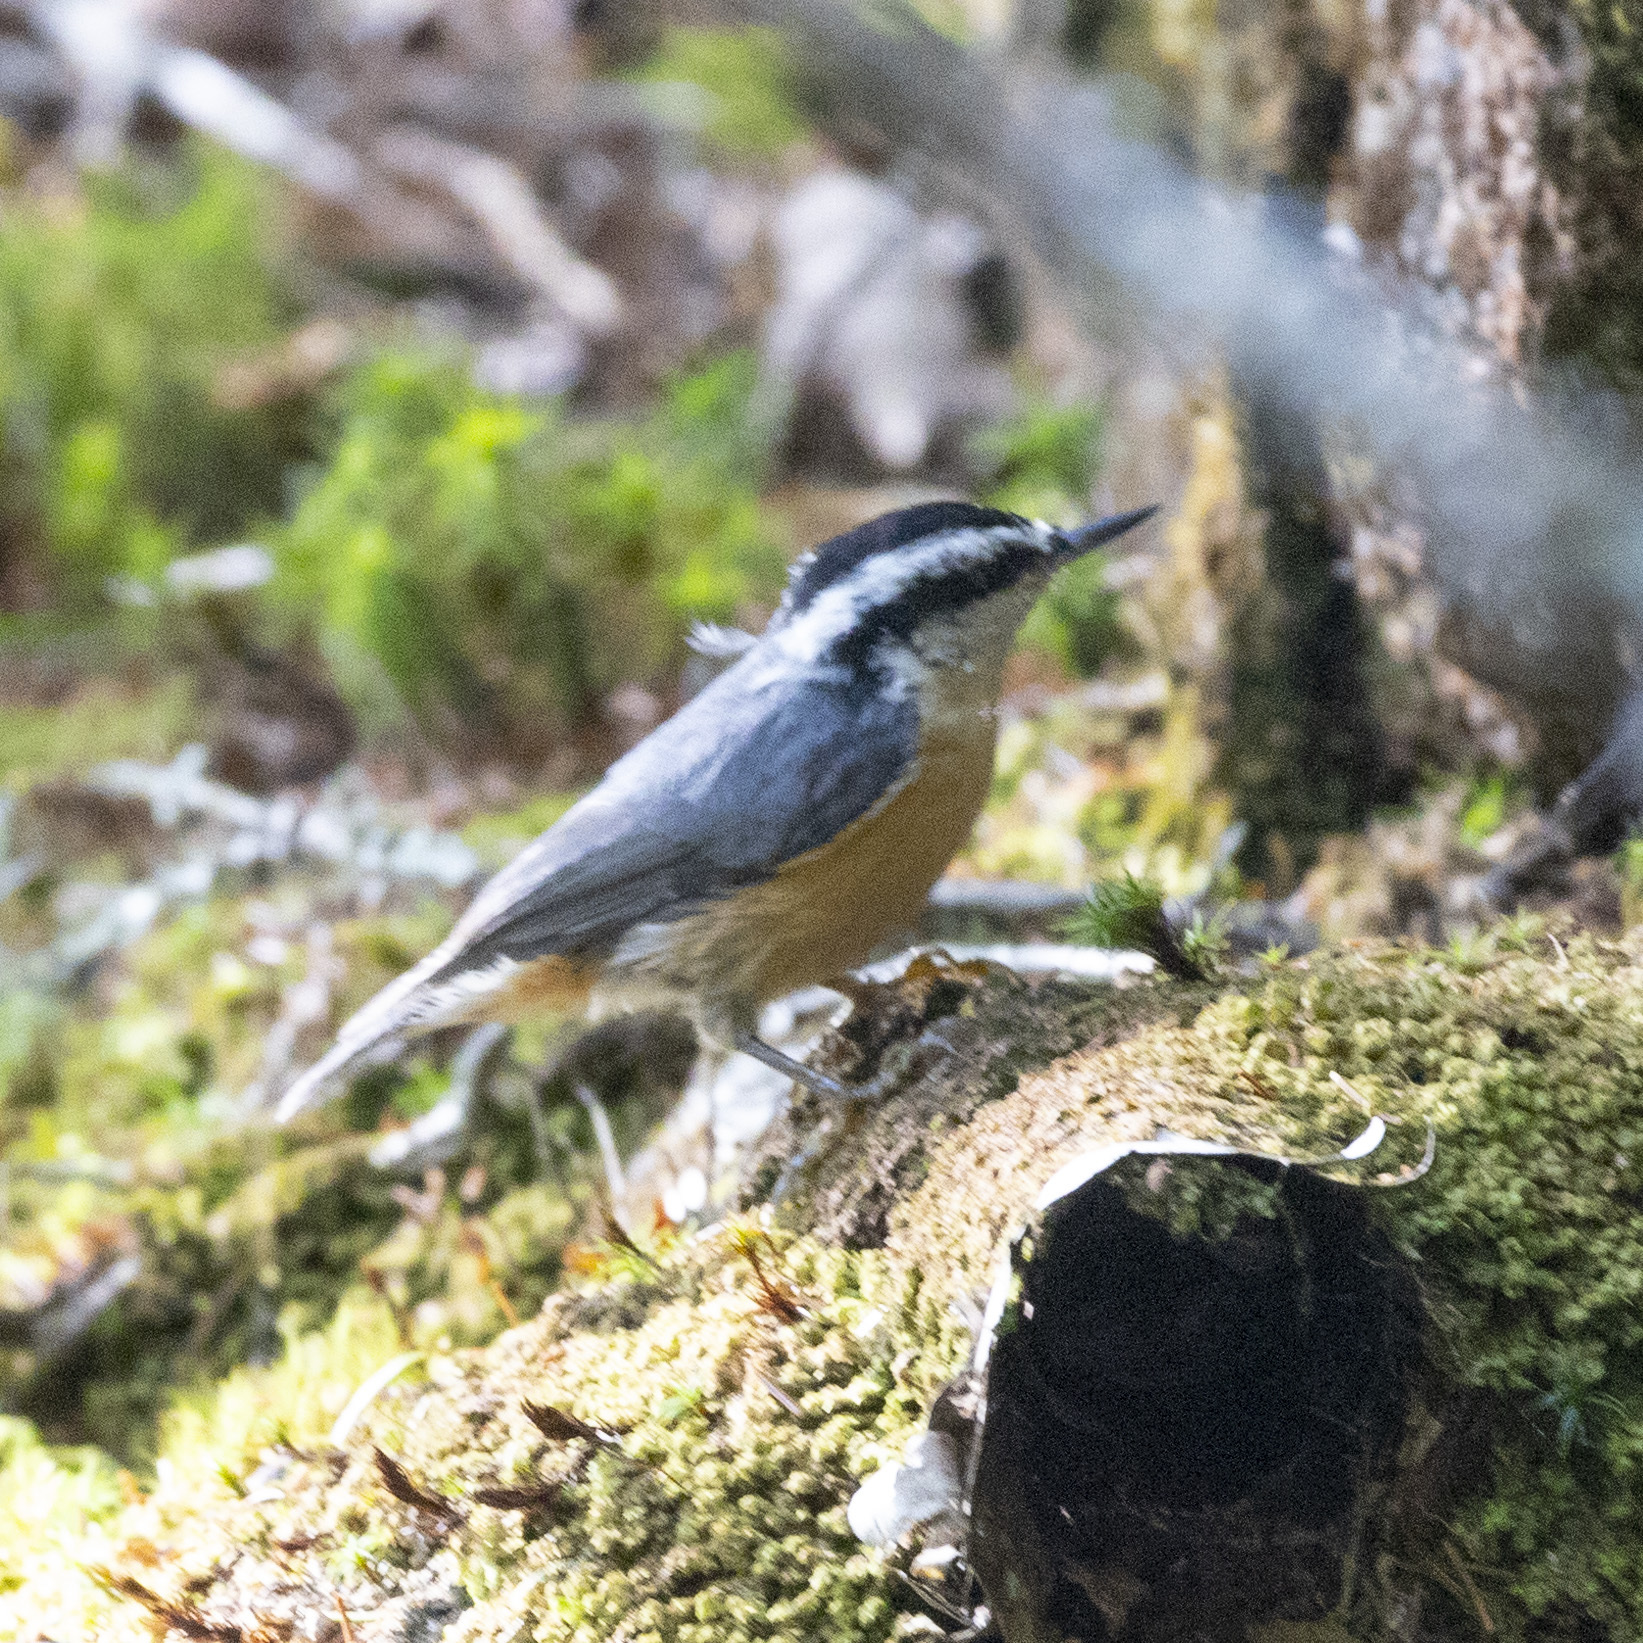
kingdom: Animalia
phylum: Chordata
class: Aves
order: Passeriformes
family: Sittidae
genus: Sitta
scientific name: Sitta canadensis
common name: Red-breasted nuthatch
